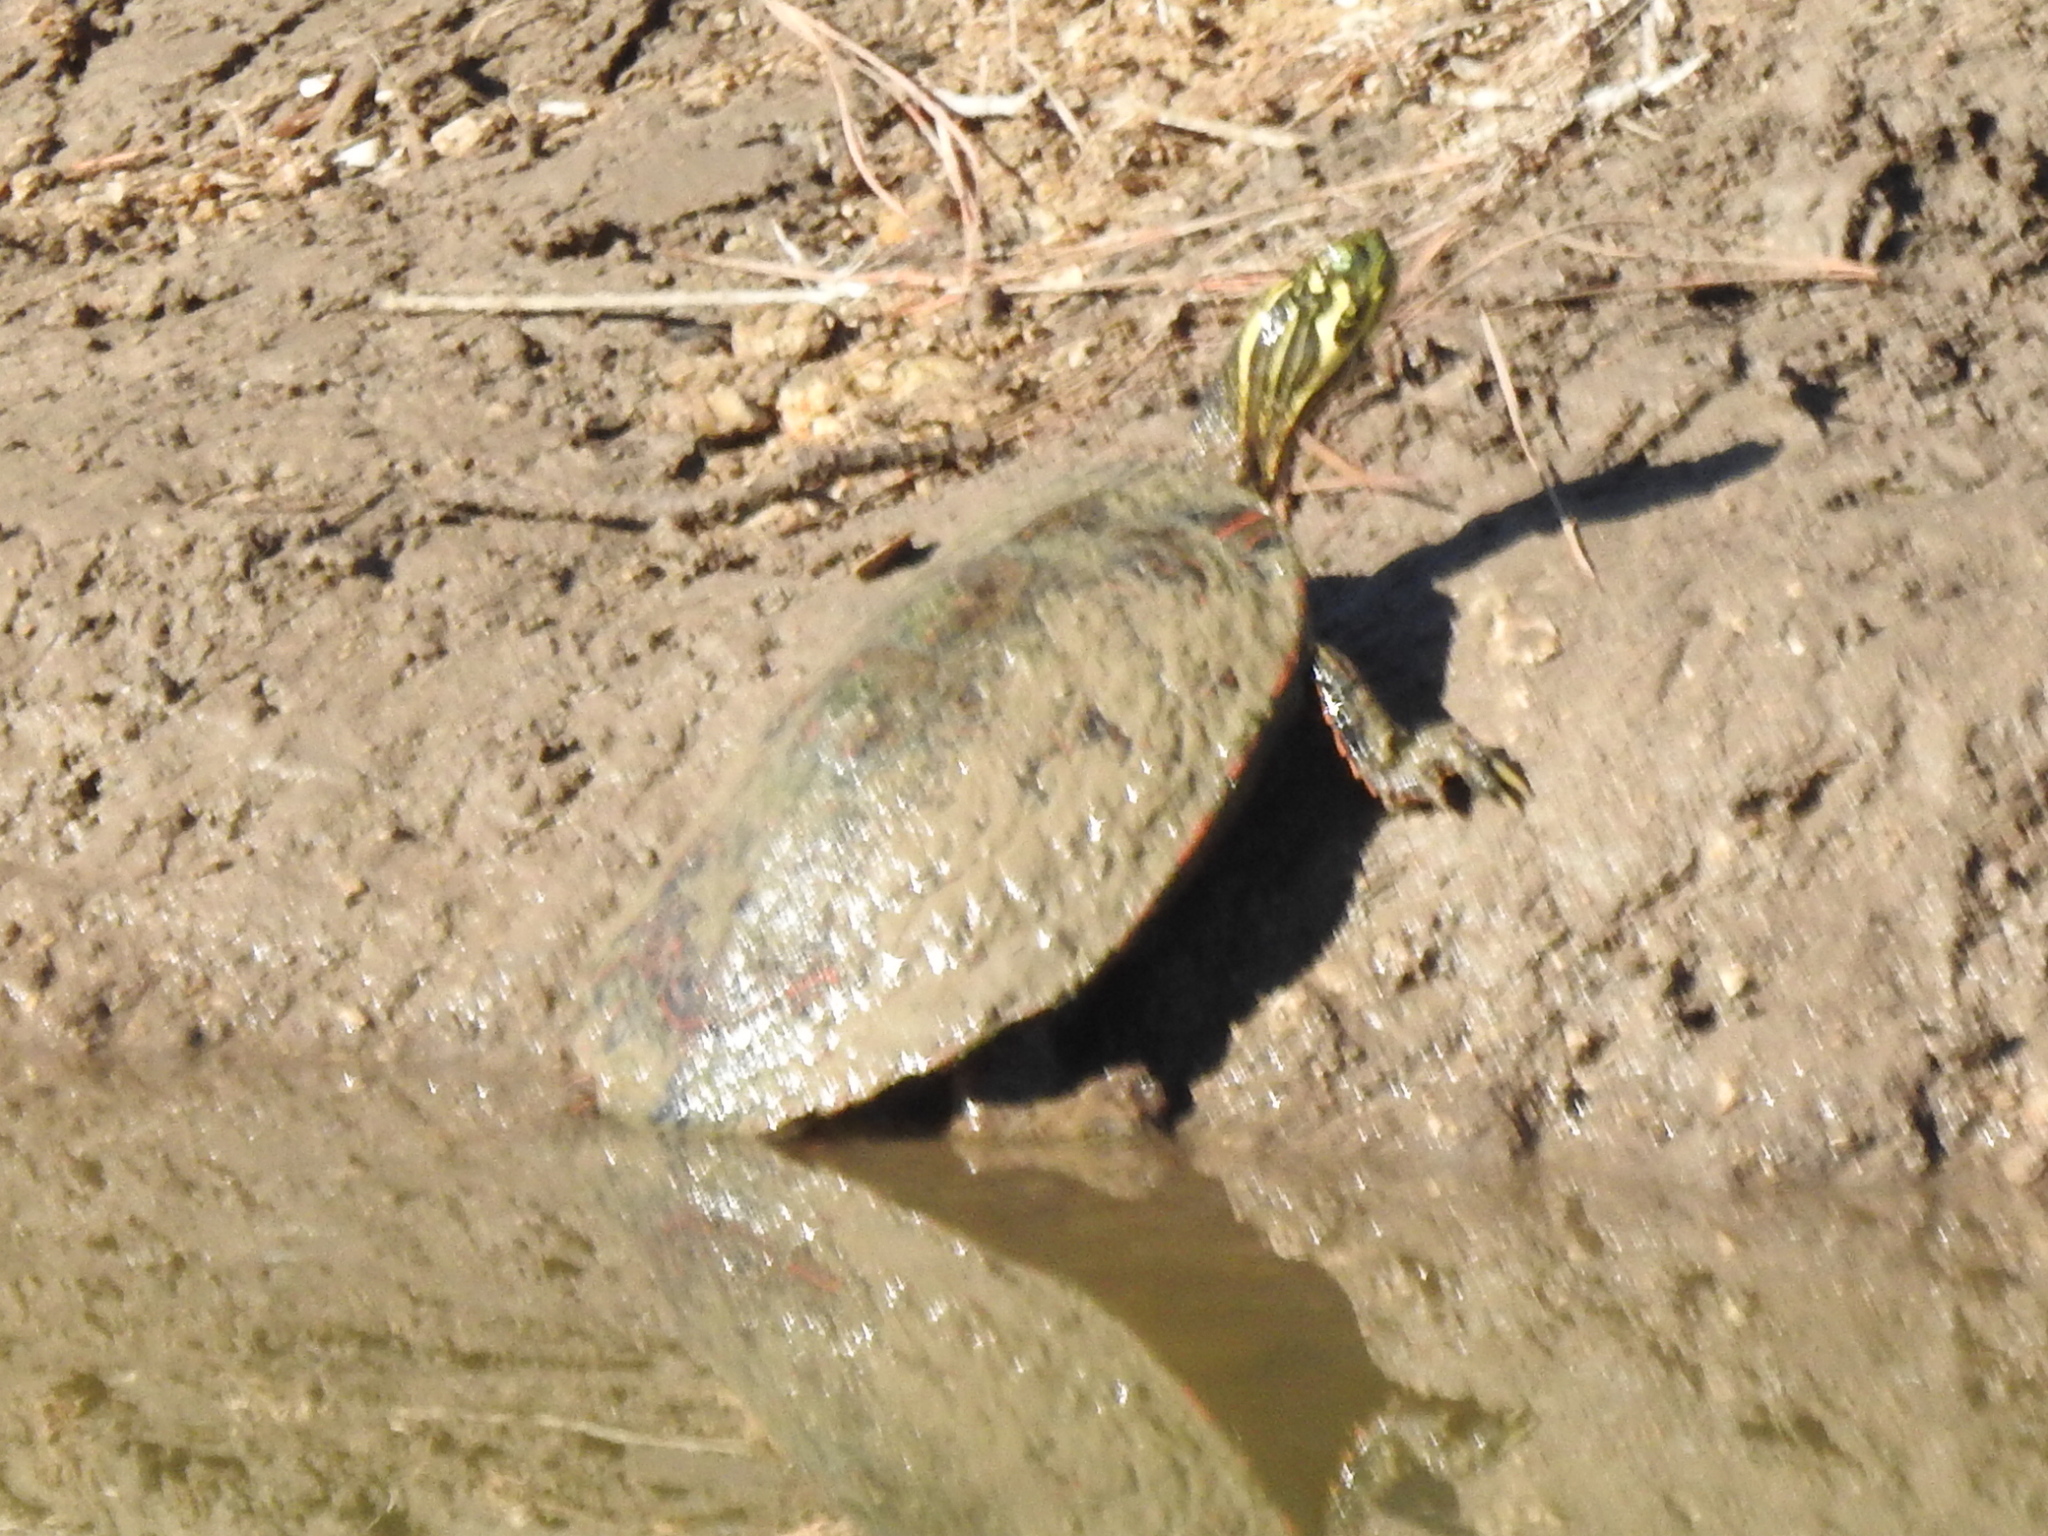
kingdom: Animalia
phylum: Chordata
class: Testudines
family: Emydidae
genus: Pseudemys
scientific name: Pseudemys texana
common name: Texas river cooter
